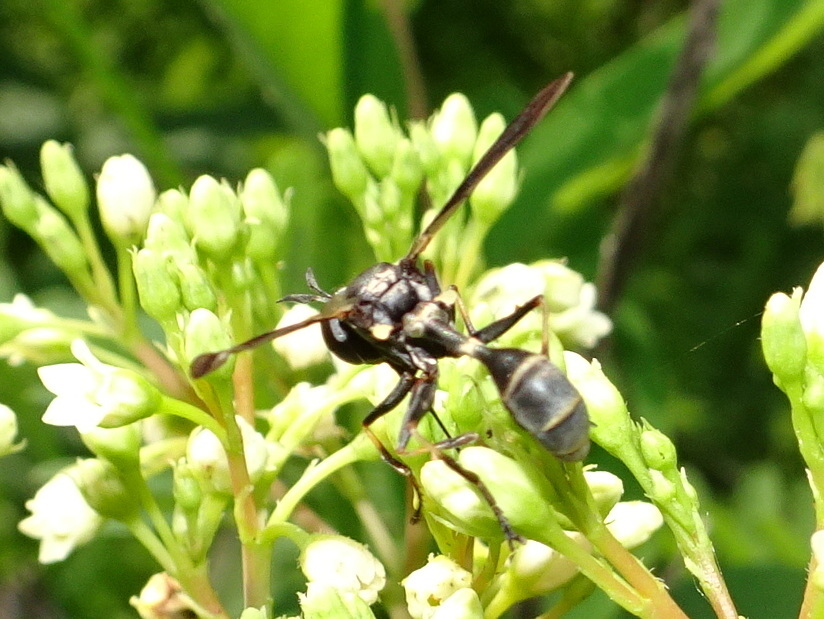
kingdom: Animalia
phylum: Arthropoda
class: Insecta
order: Diptera
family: Conopidae
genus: Physocephala
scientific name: Physocephala tibialis
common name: Common eastern physocephala
